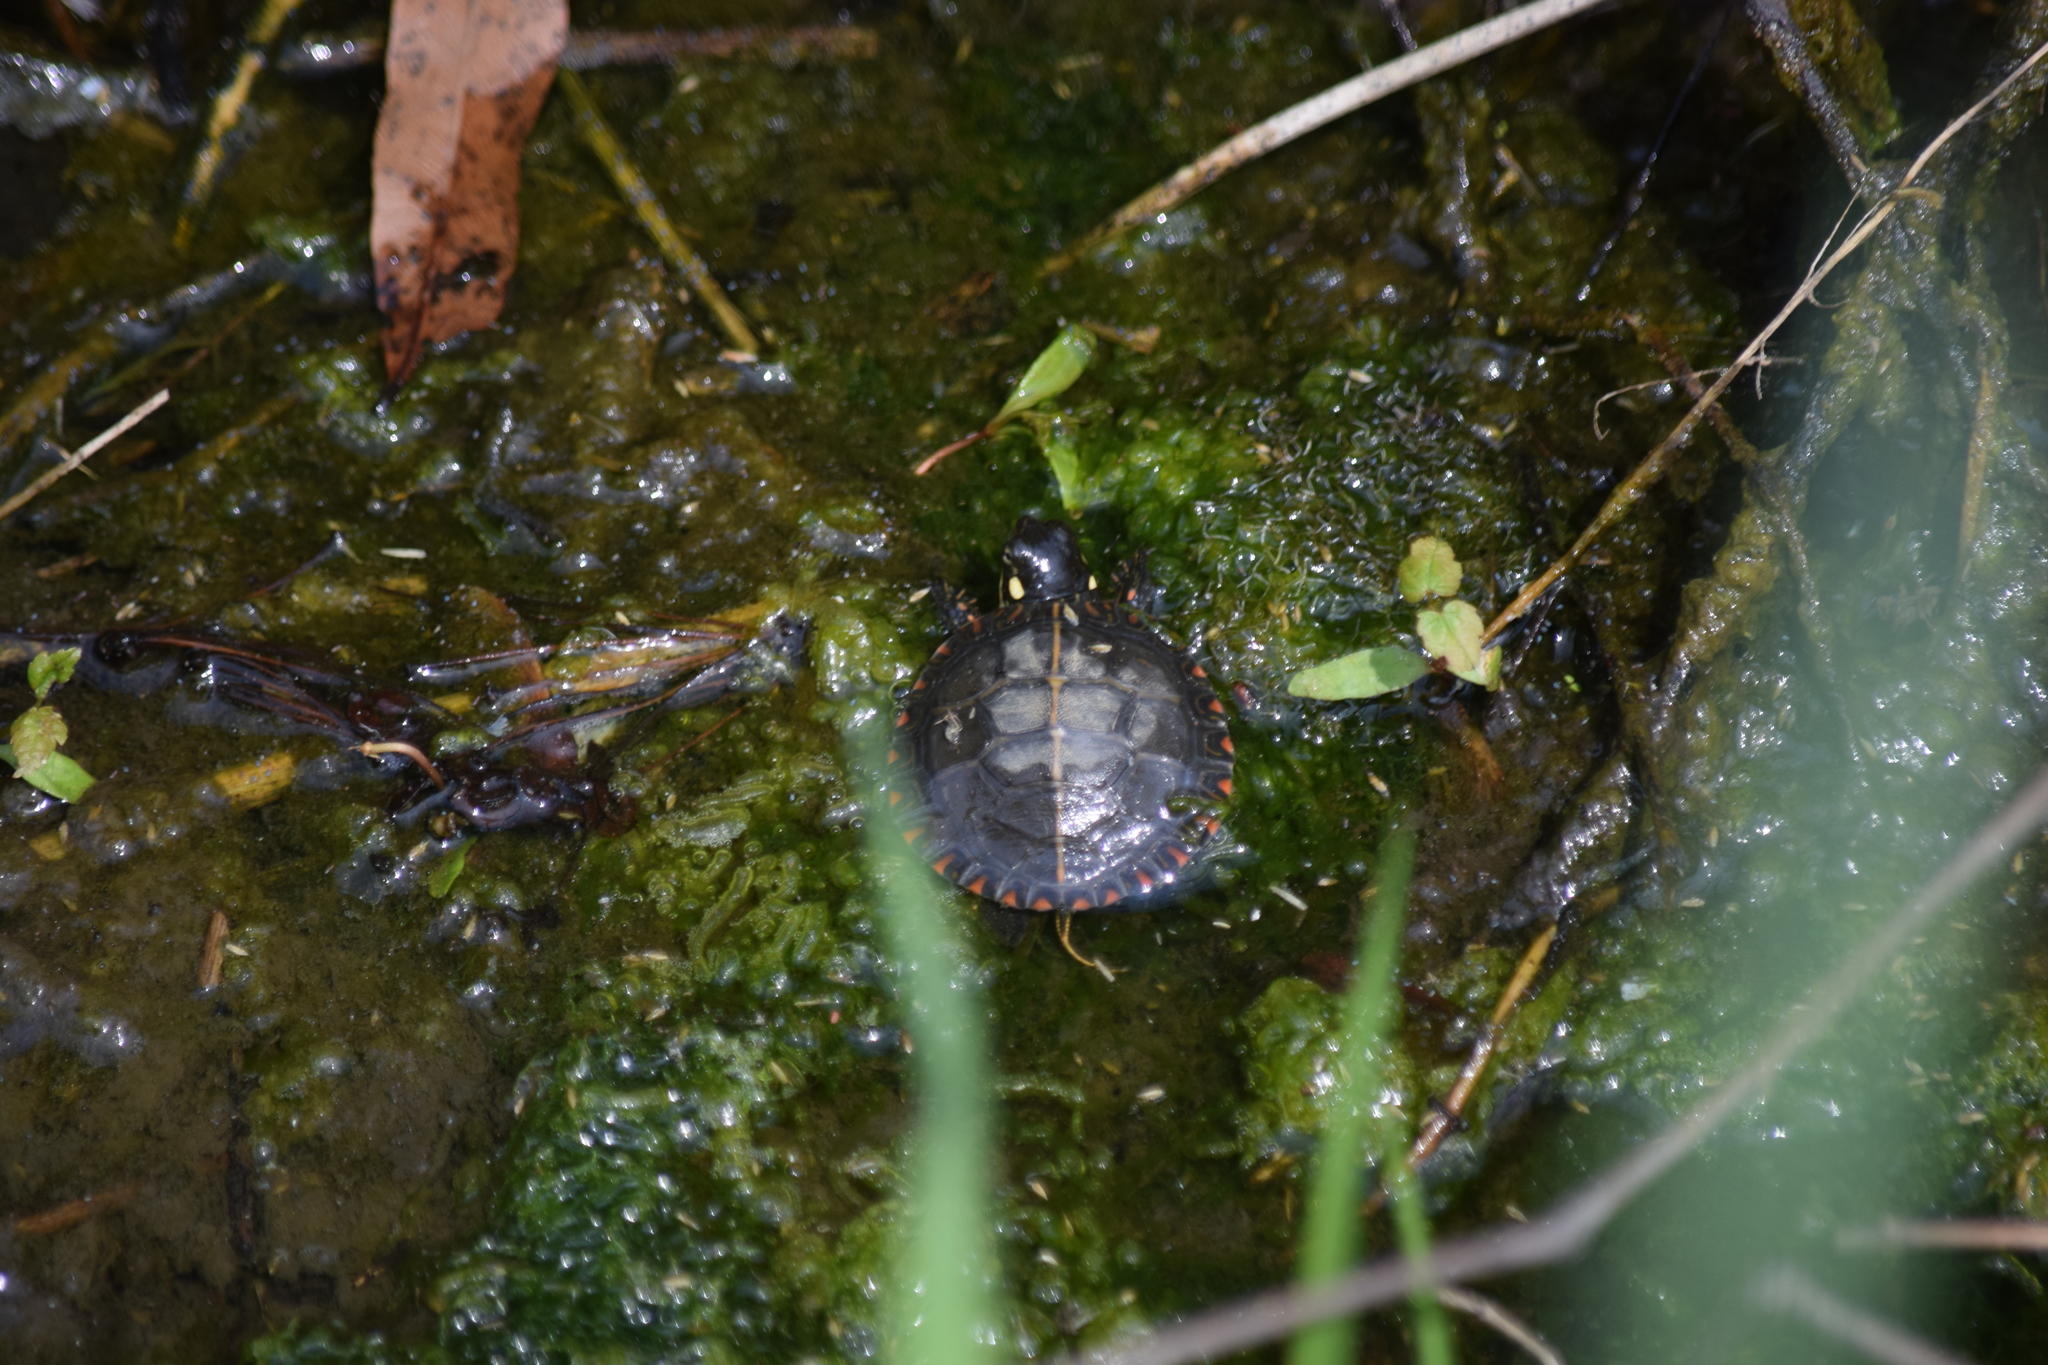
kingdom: Animalia
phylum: Chordata
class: Testudines
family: Emydidae
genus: Chrysemys
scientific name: Chrysemys picta
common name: Painted turtle
